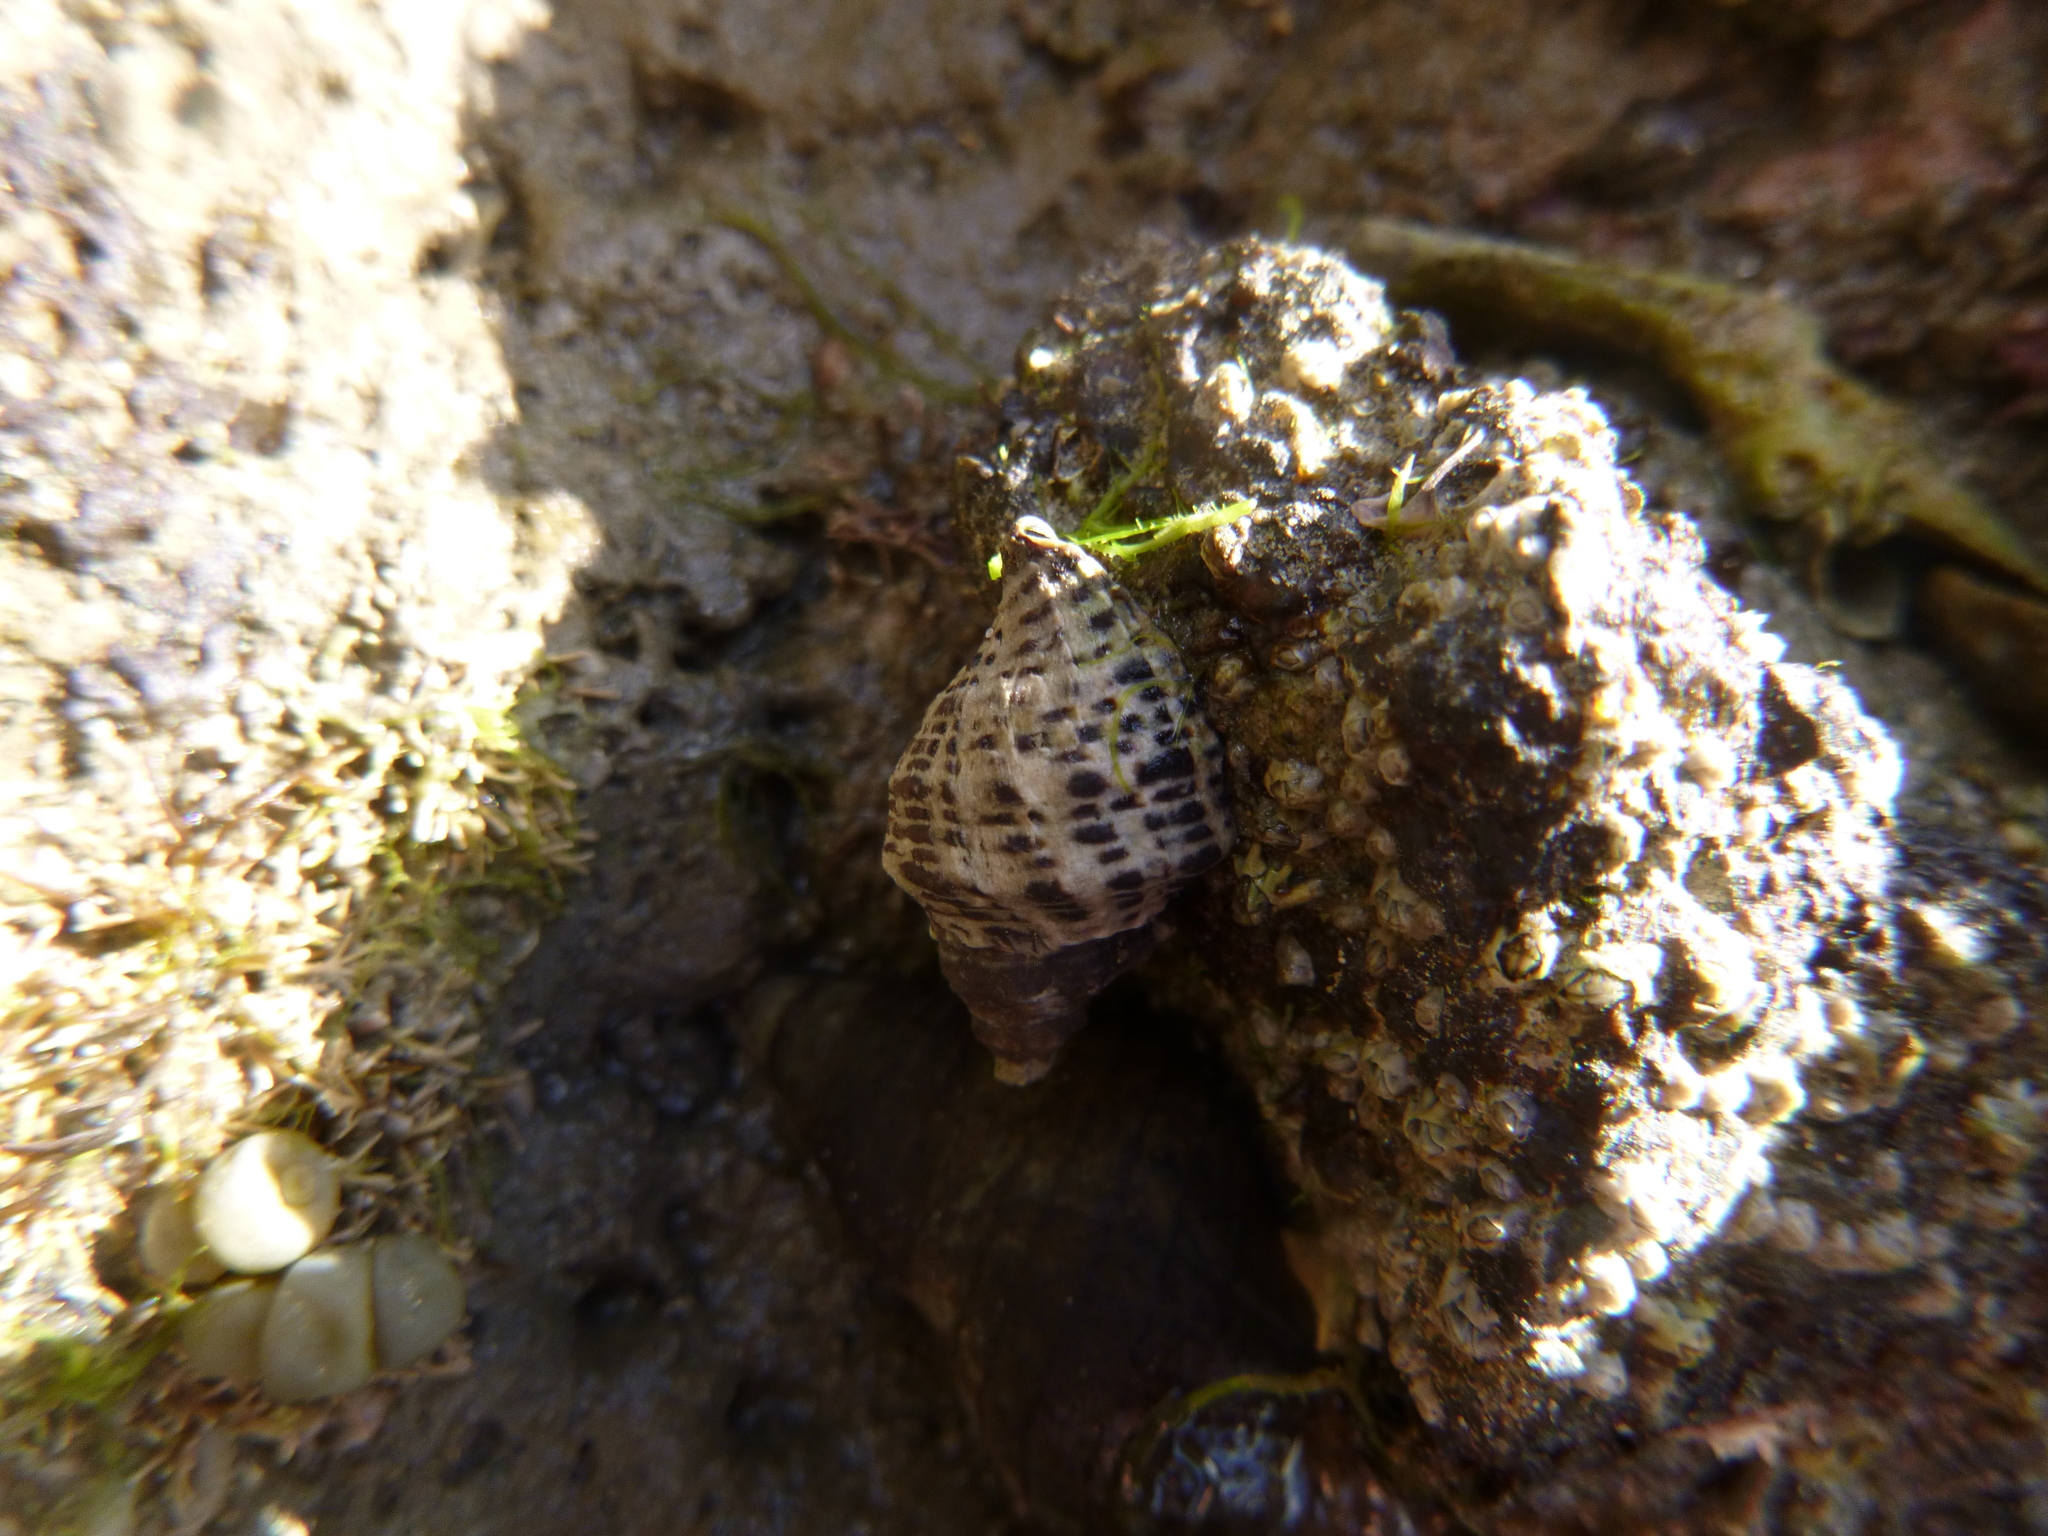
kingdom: Animalia
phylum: Mollusca
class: Gastropoda
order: Neogastropoda
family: Muricidae
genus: Haustrum
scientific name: Haustrum scobina
